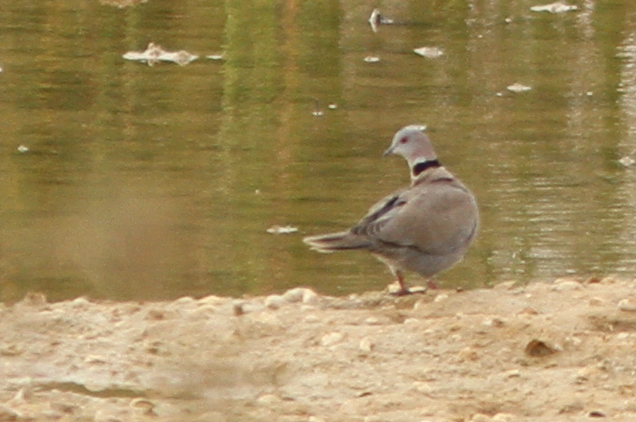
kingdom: Animalia
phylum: Chordata
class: Aves
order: Columbiformes
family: Columbidae
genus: Streptopelia
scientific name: Streptopelia decipiens
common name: Mourning collared dove
